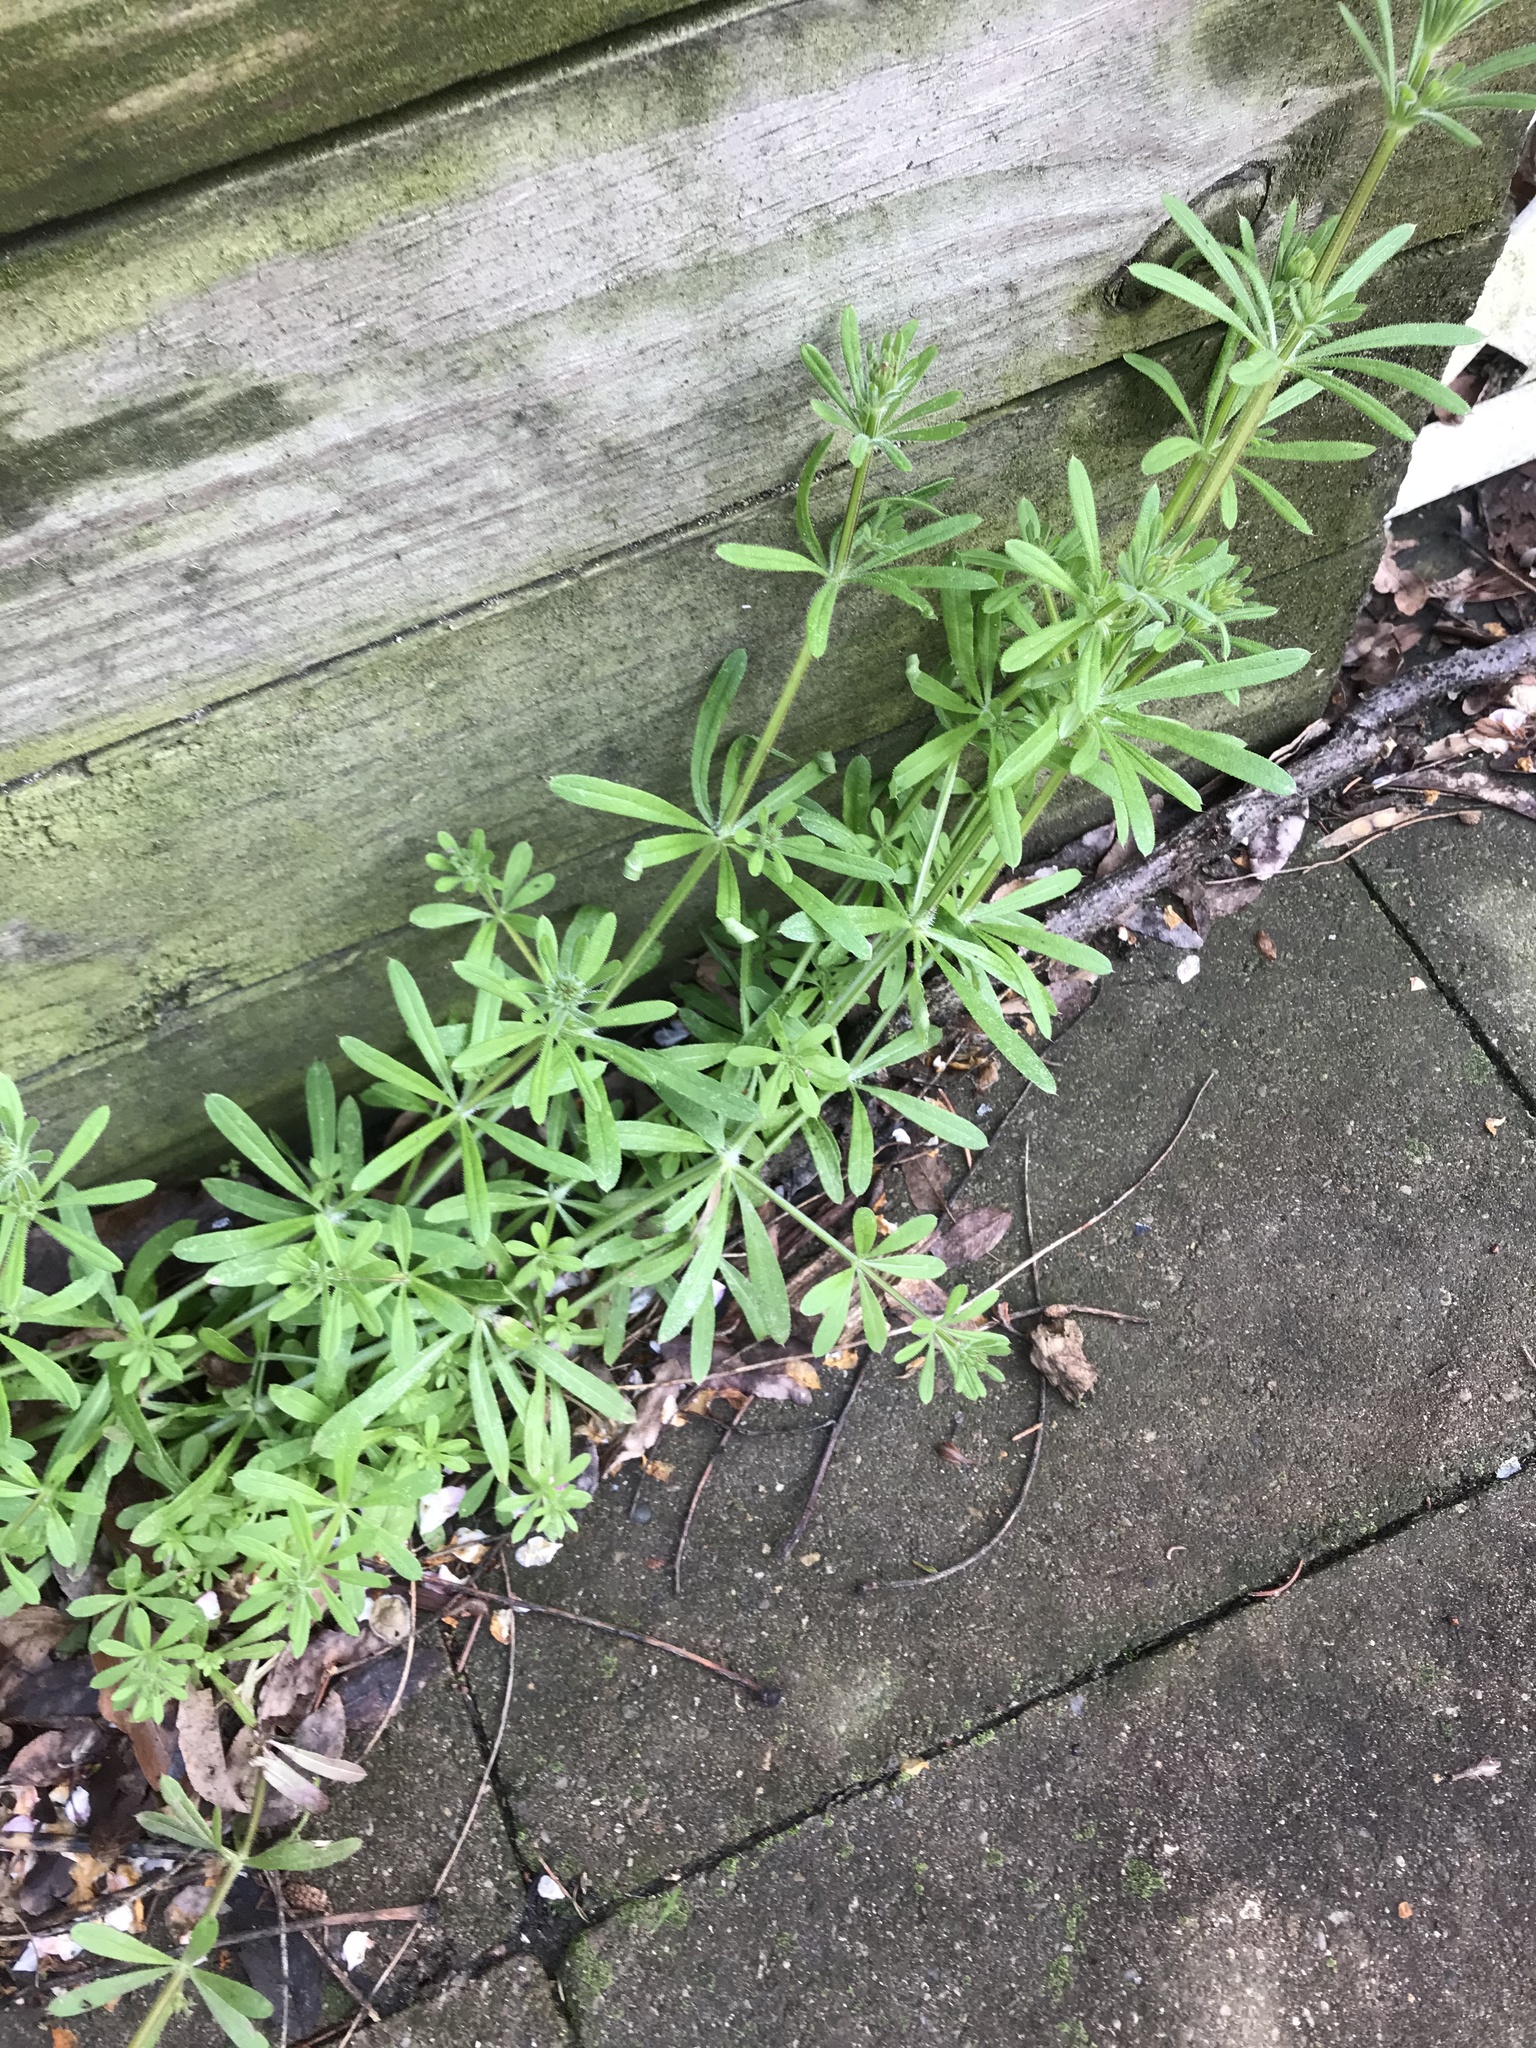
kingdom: Plantae
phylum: Tracheophyta
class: Magnoliopsida
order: Gentianales
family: Rubiaceae
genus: Galium
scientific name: Galium aparine
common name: Cleavers
